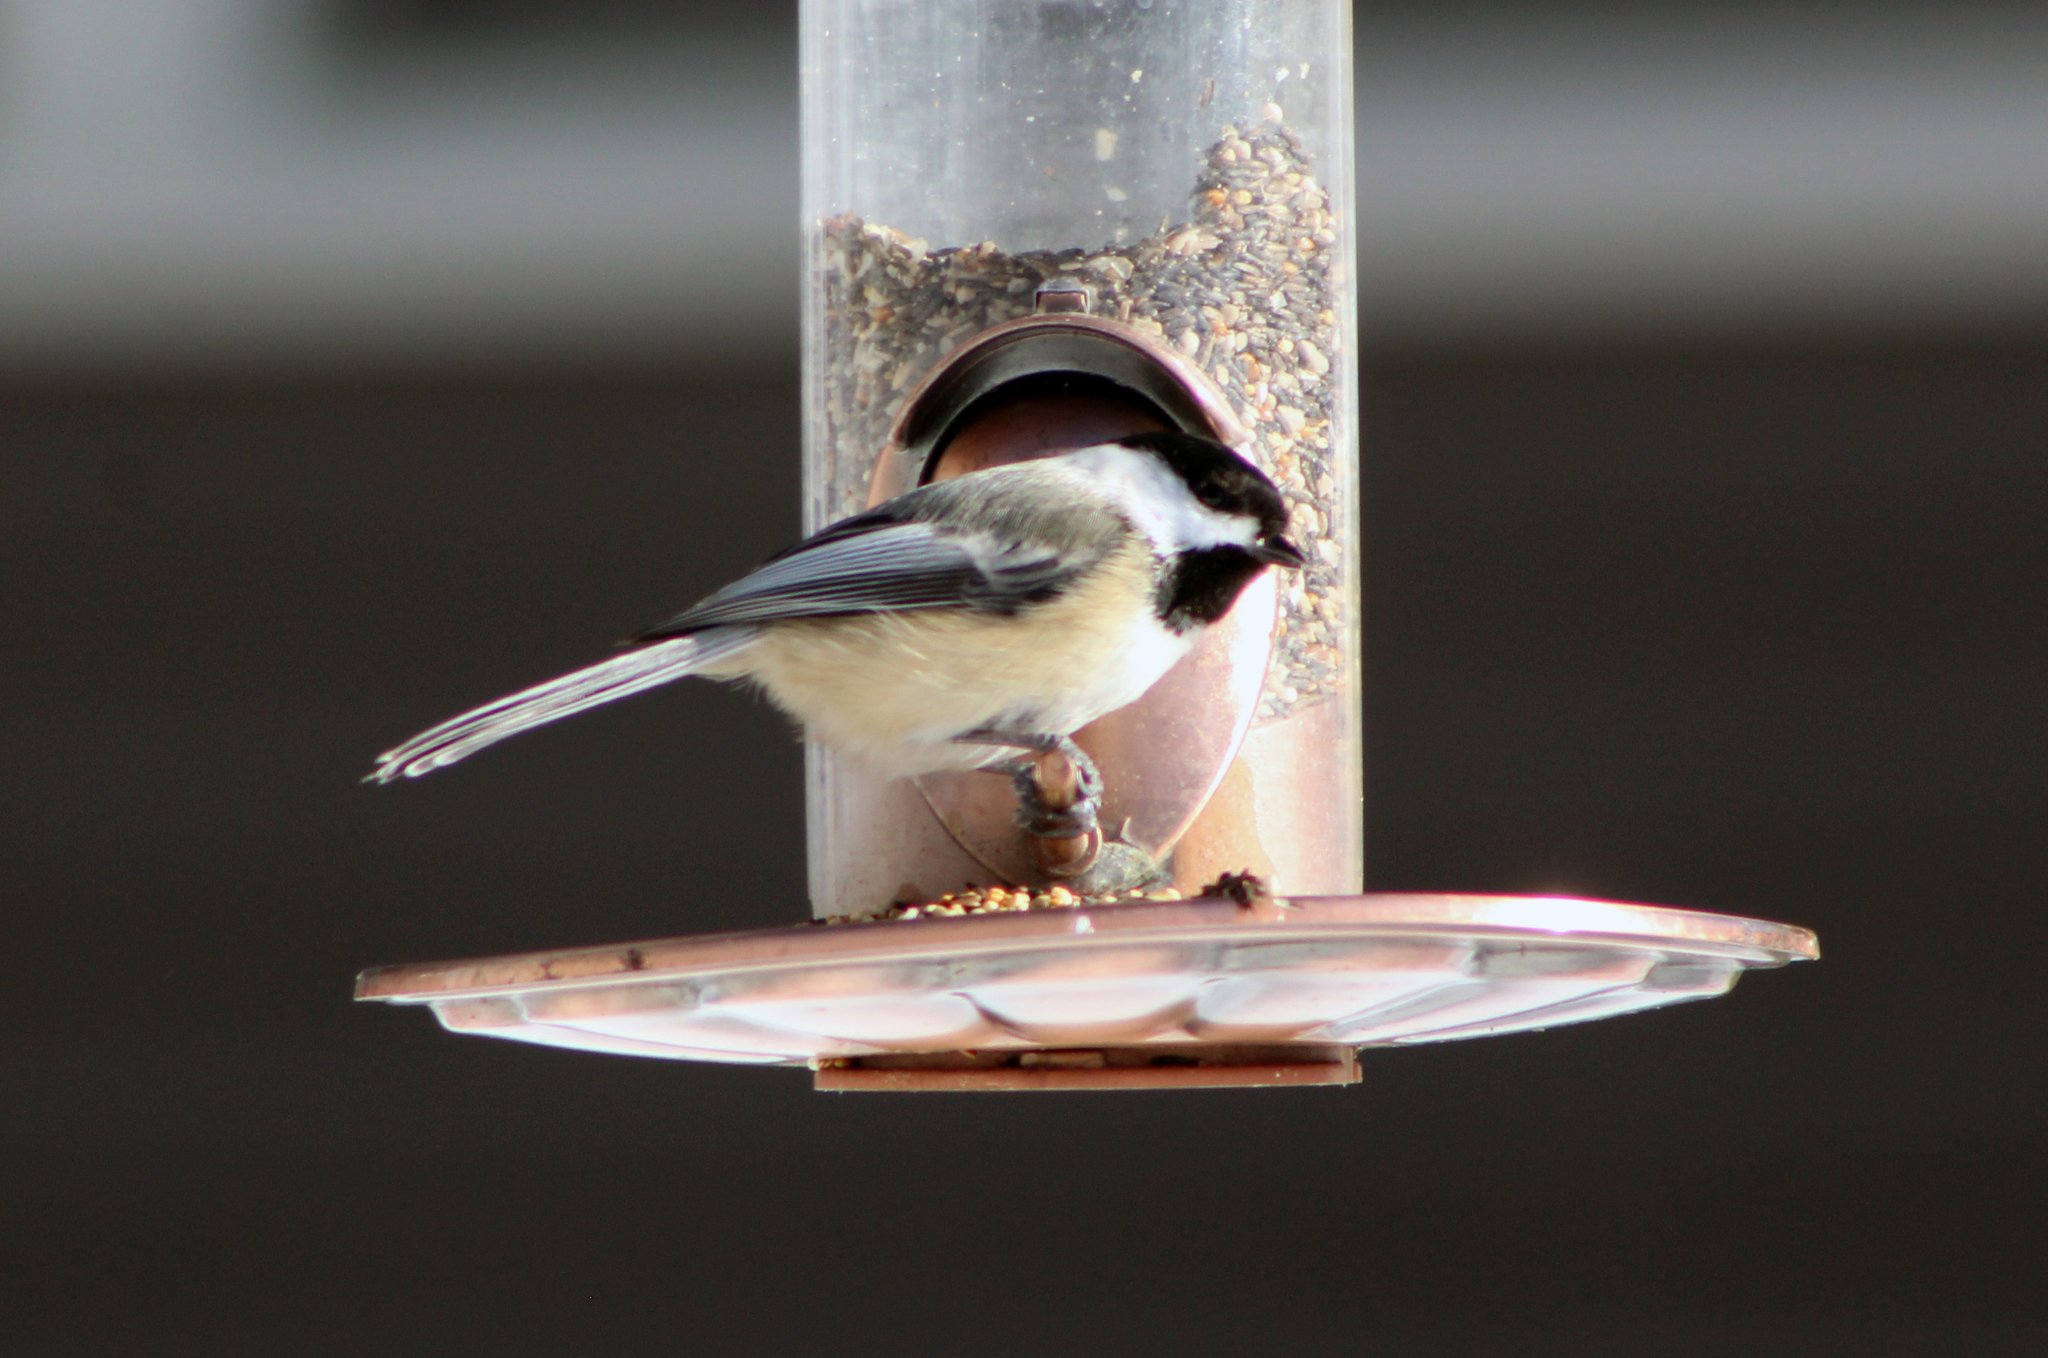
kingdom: Animalia
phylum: Chordata
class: Aves
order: Passeriformes
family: Paridae
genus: Poecile
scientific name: Poecile atricapillus
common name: Black-capped chickadee
